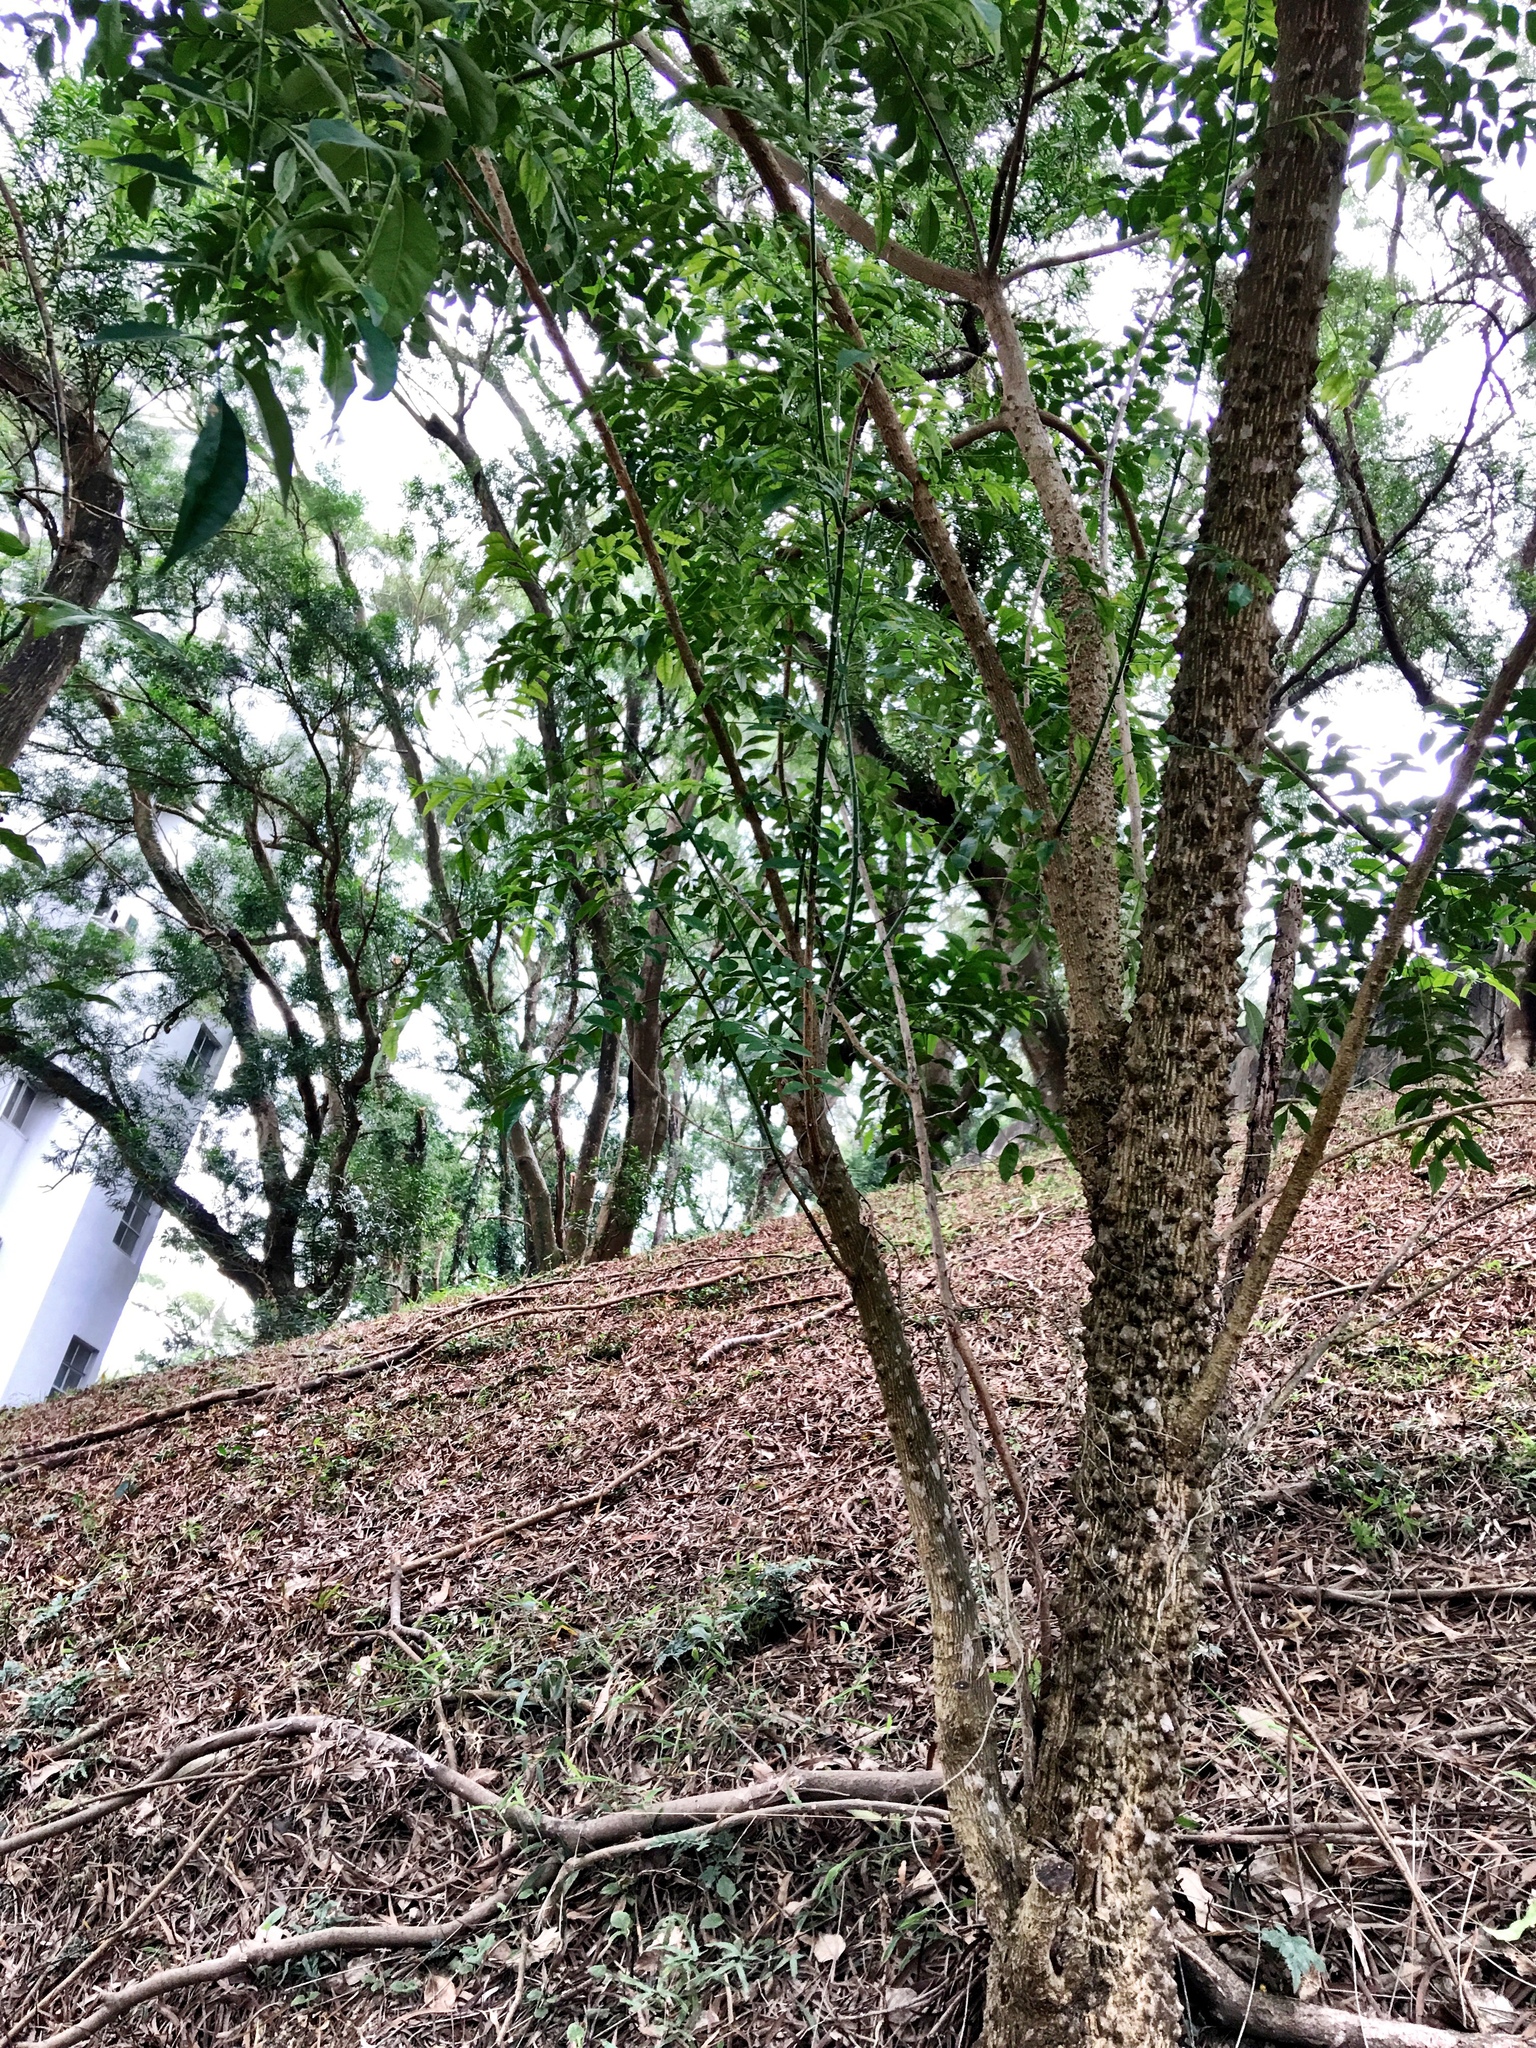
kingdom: Plantae
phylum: Tracheophyta
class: Magnoliopsida
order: Sapindales
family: Rutaceae
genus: Zanthoxylum
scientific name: Zanthoxylum avicennae
